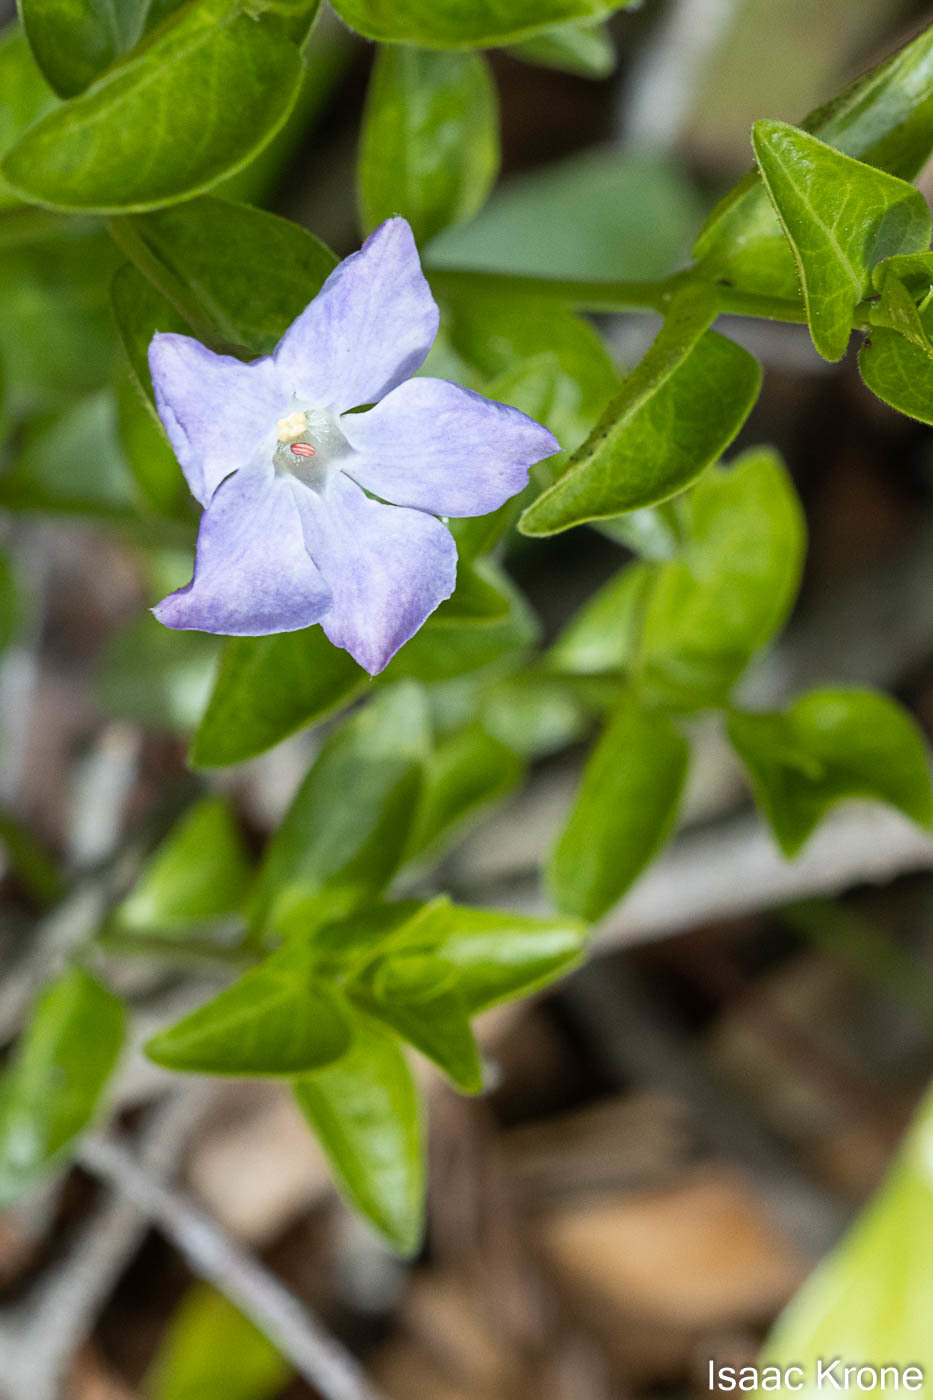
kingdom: Plantae
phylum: Tracheophyta
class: Magnoliopsida
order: Gentianales
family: Apocynaceae
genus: Vinca
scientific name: Vinca major
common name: Greater periwinkle
